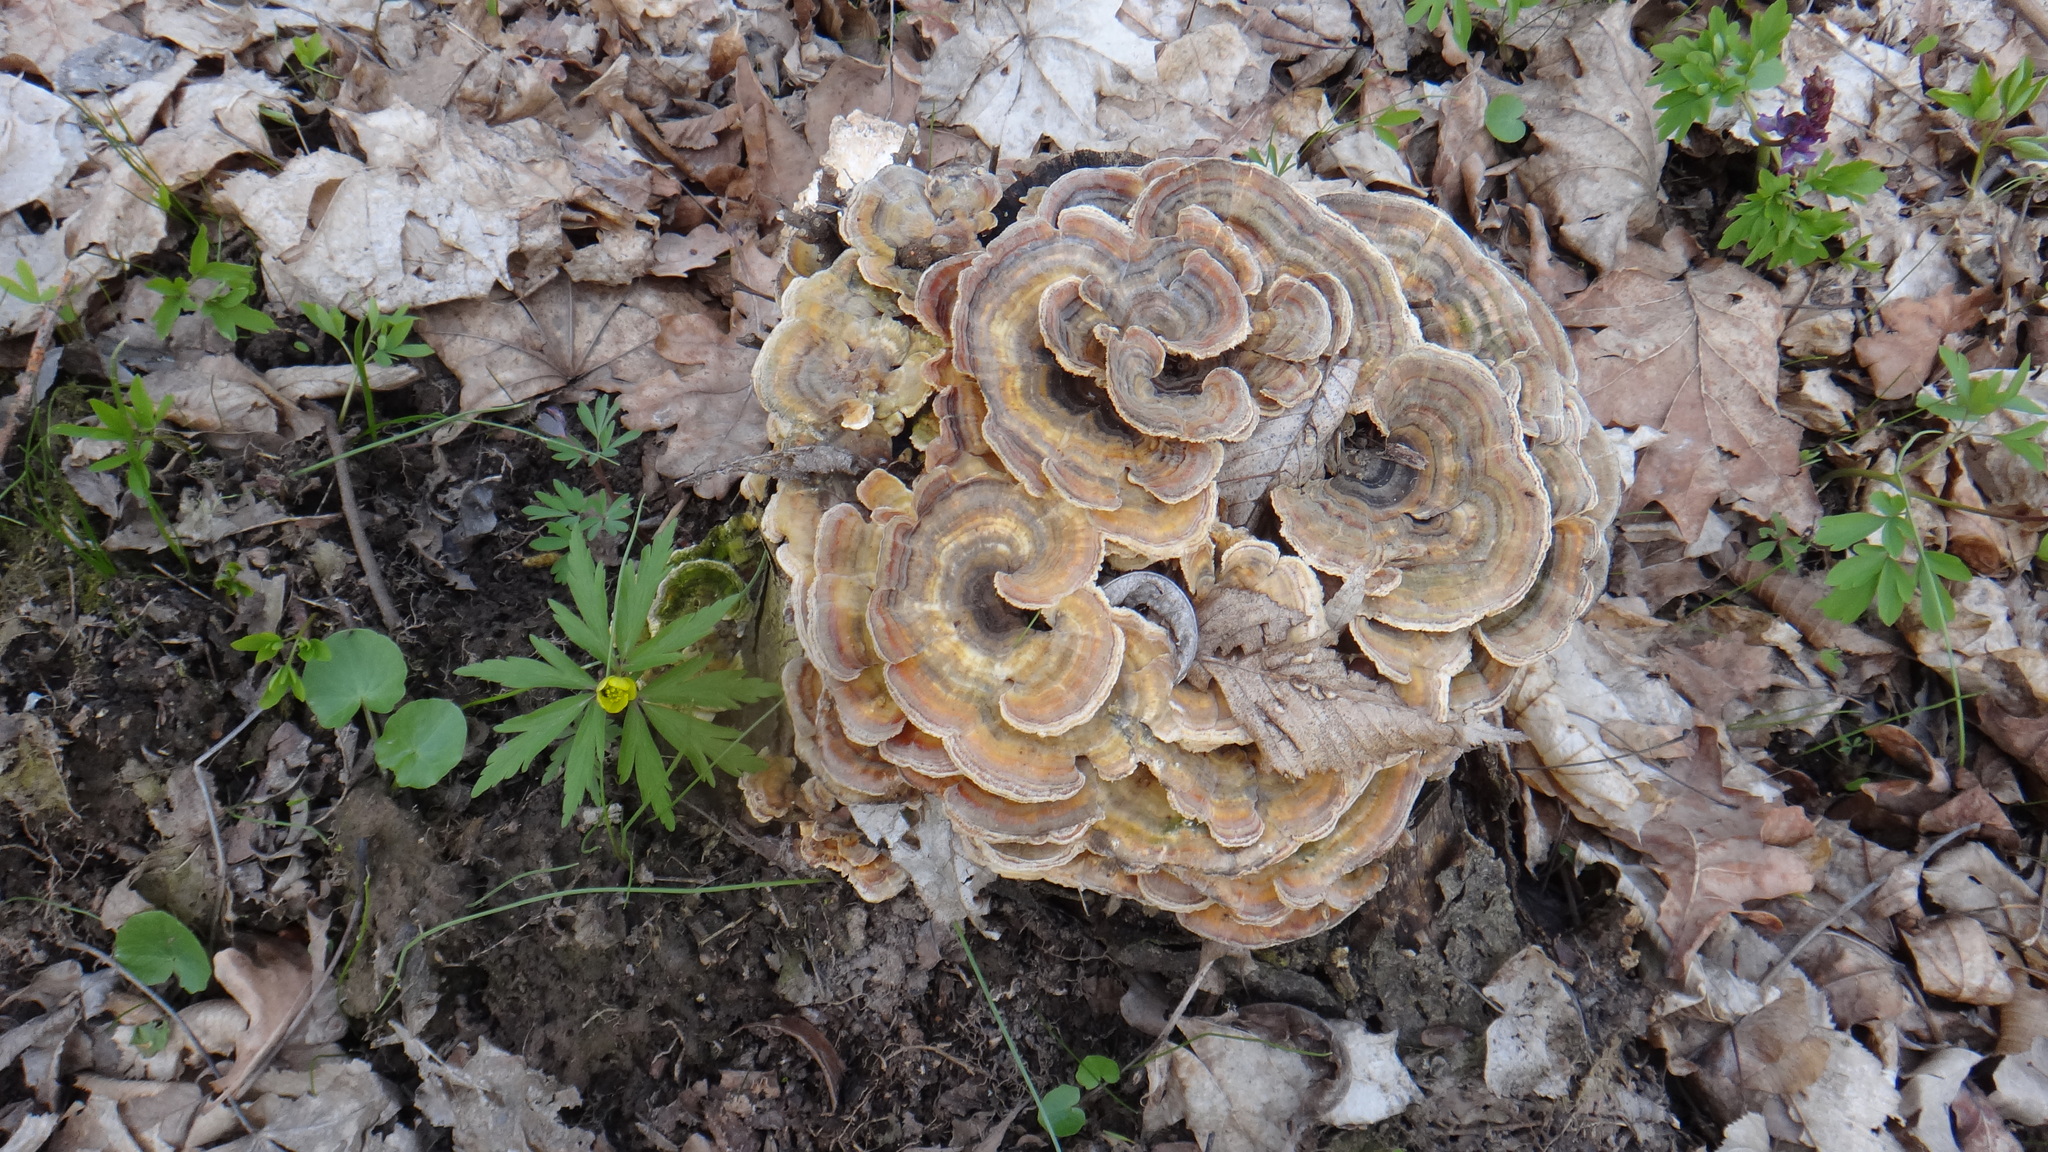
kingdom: Fungi
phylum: Basidiomycota
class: Agaricomycetes
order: Polyporales
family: Polyporaceae
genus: Trametes
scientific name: Trametes versicolor
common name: Turkeytail
